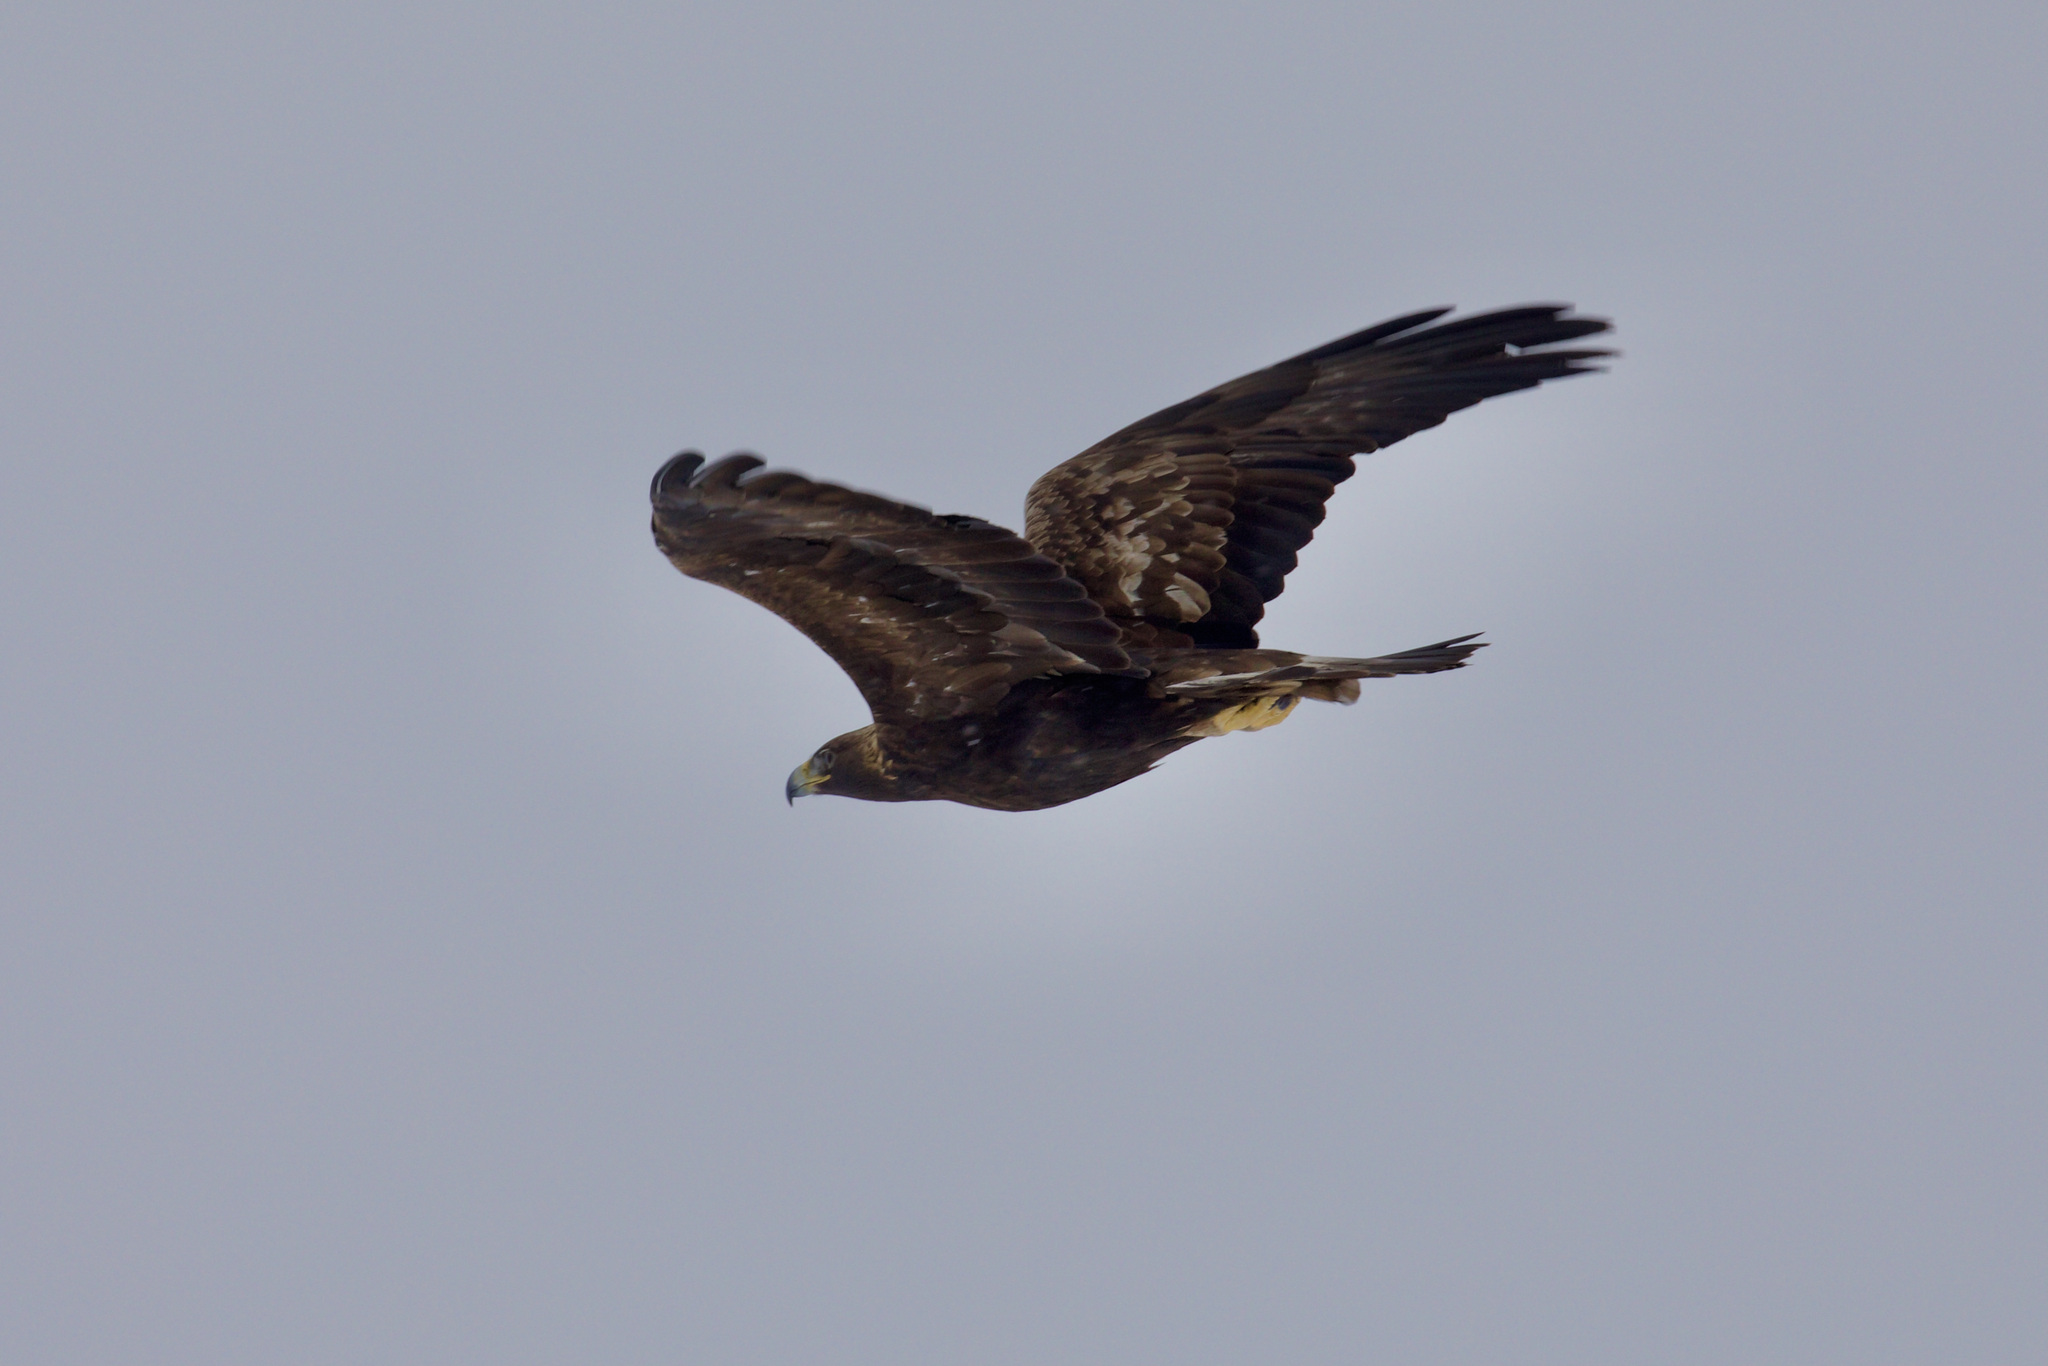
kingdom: Animalia
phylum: Chordata
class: Aves
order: Accipitriformes
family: Accipitridae
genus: Aquila
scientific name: Aquila chrysaetos
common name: Golden eagle
